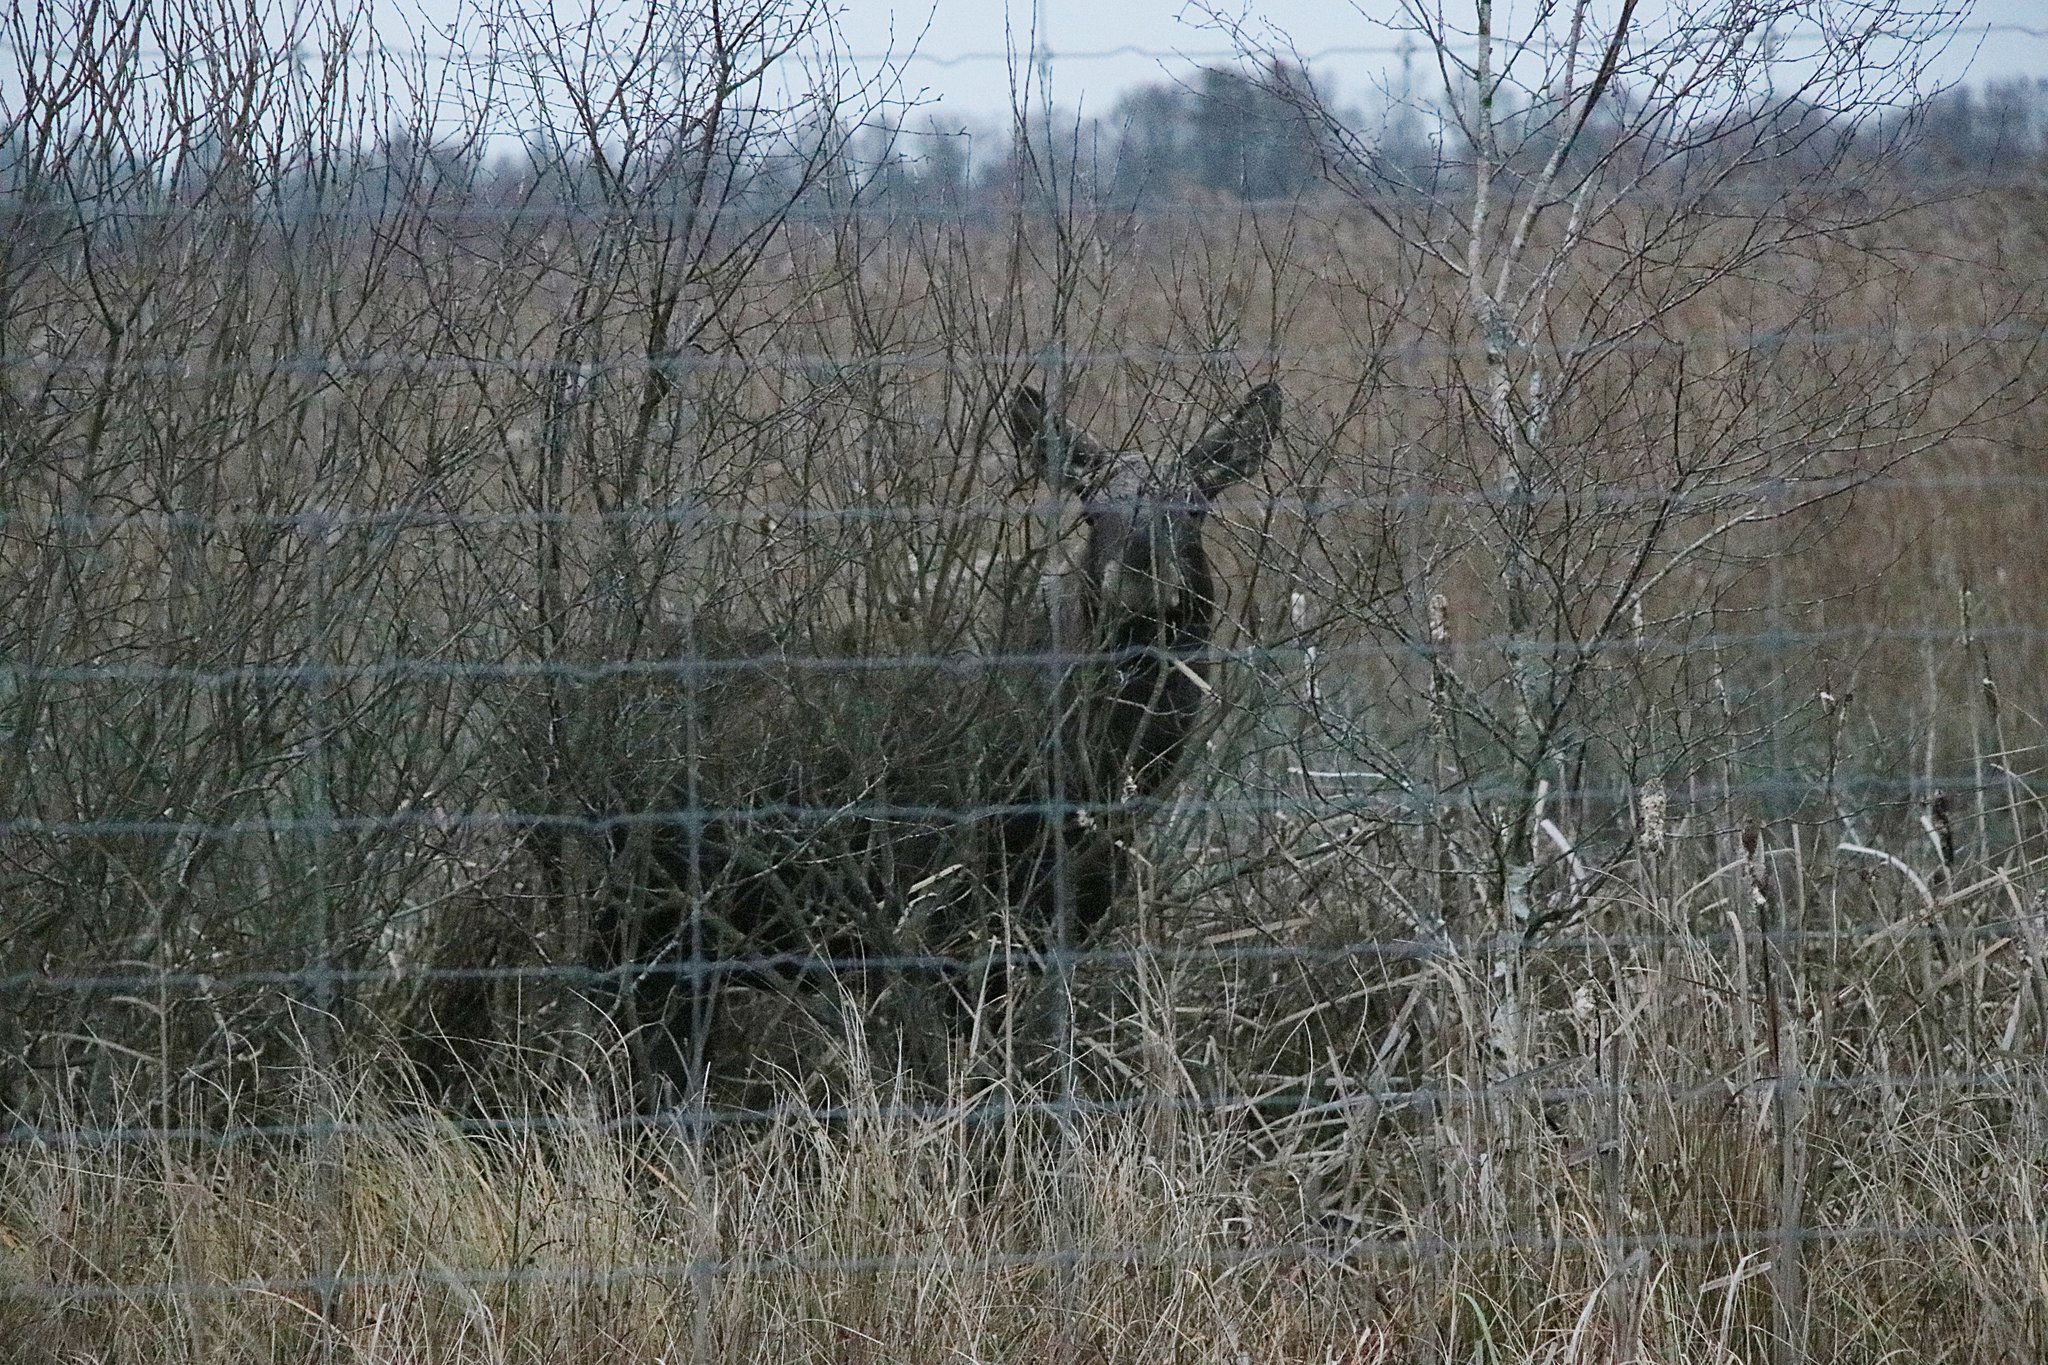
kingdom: Animalia
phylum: Chordata
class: Mammalia
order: Artiodactyla
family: Cervidae
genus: Alces
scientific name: Alces alces
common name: Moose
